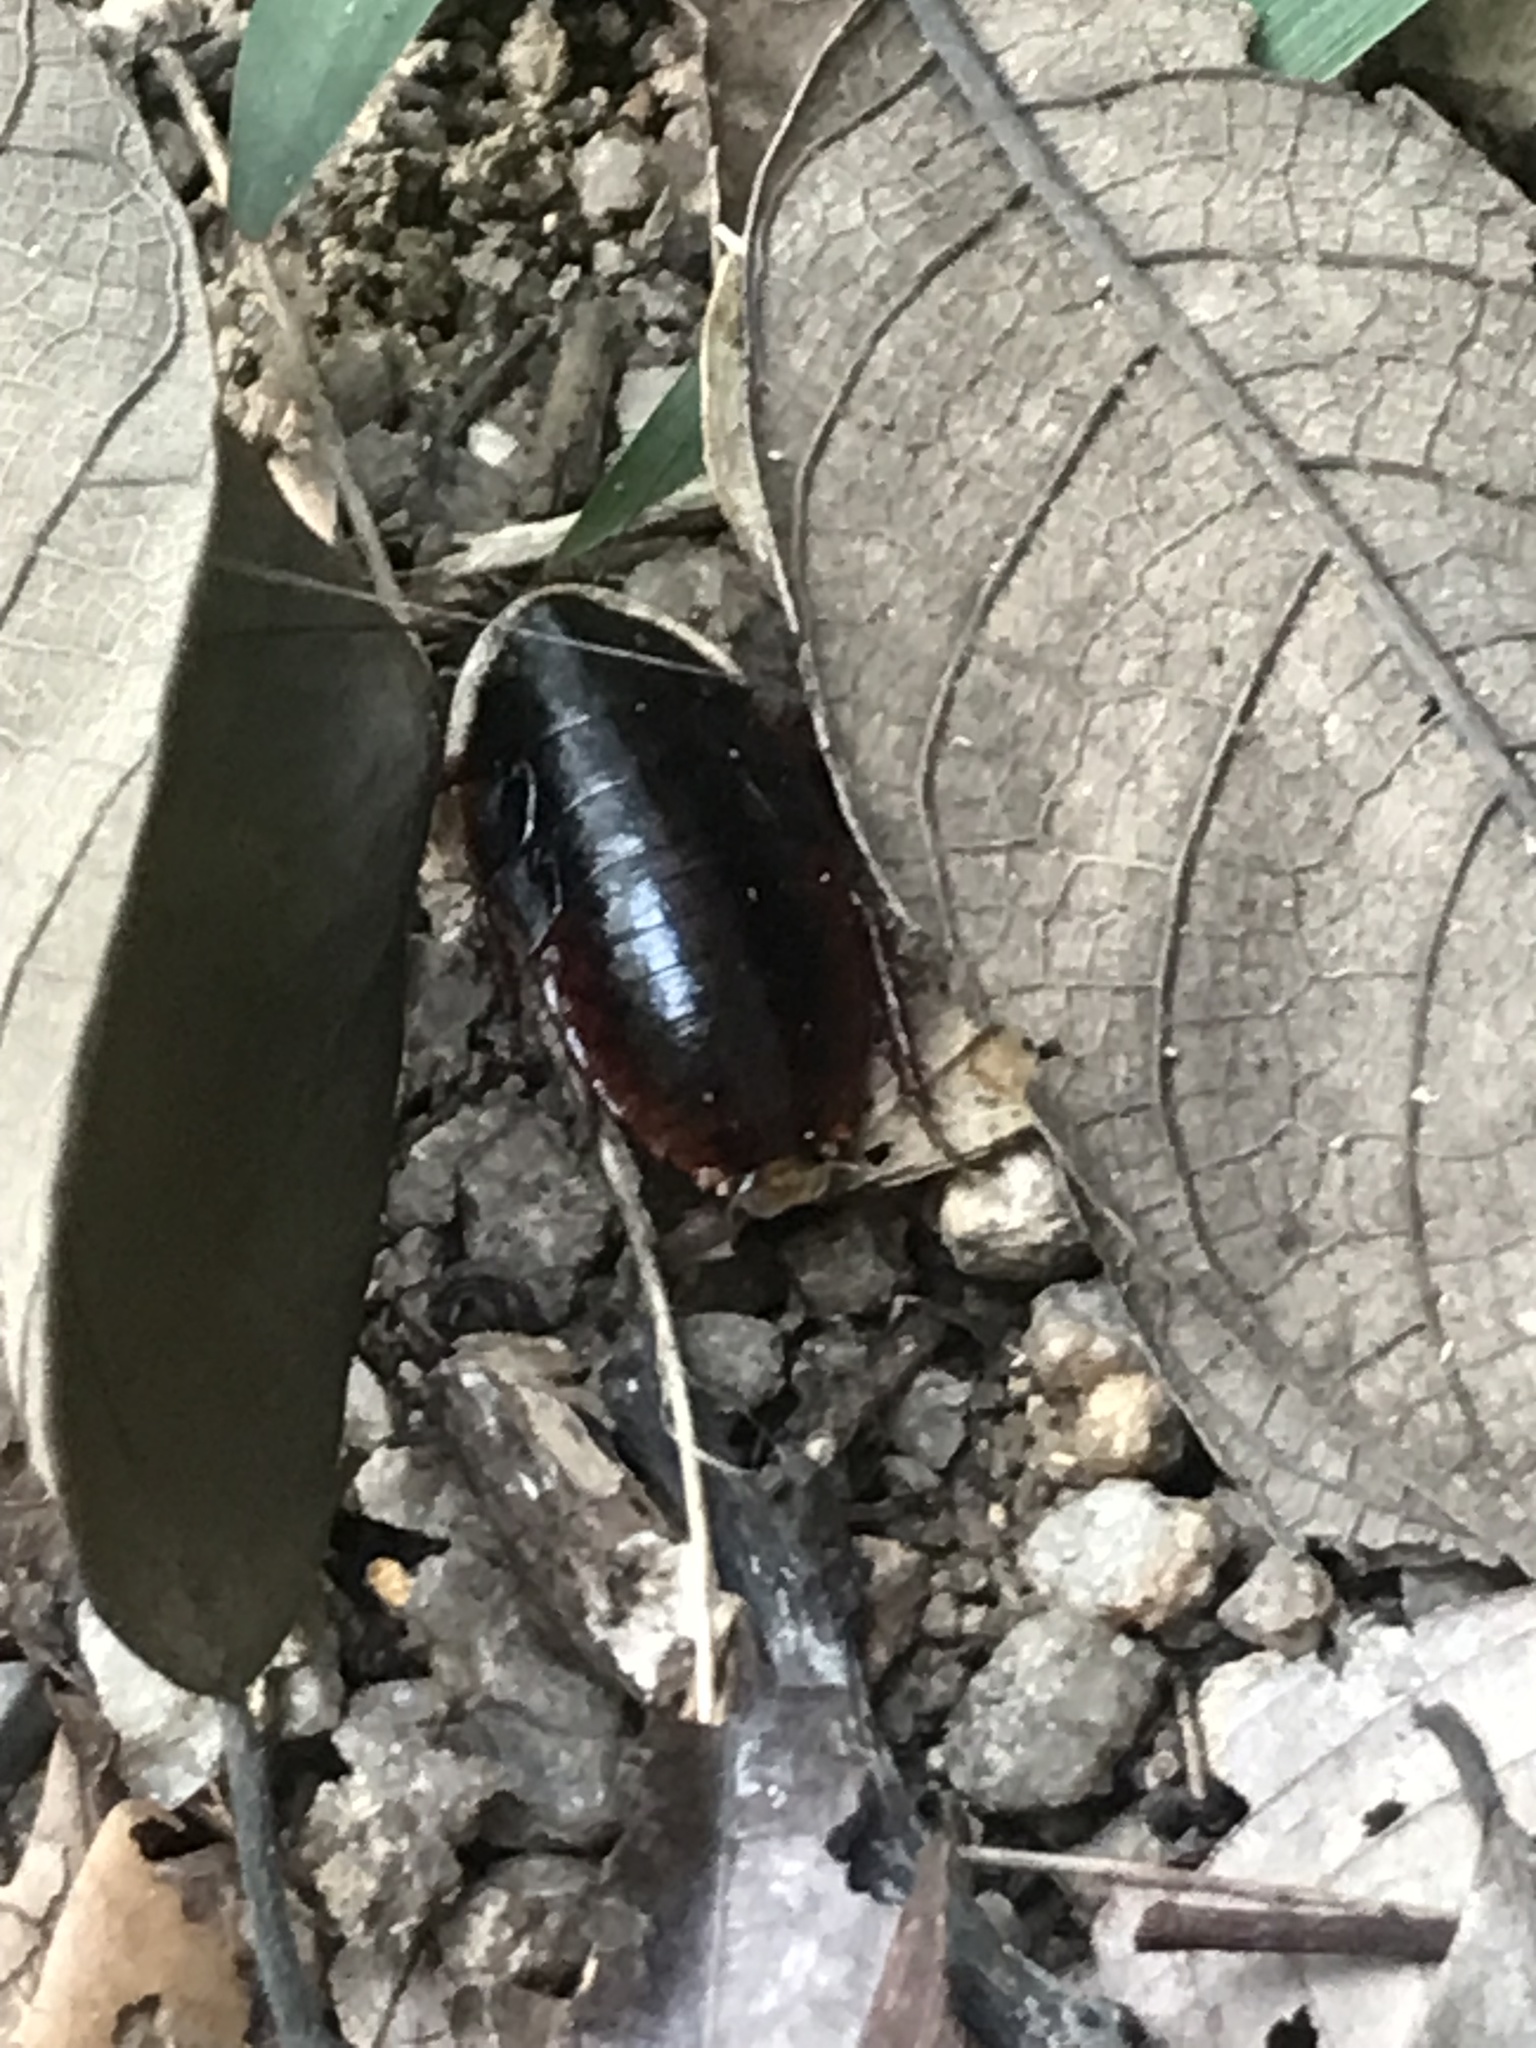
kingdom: Animalia
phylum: Arthropoda
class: Insecta
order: Blattodea
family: Blaberidae
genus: Opisthoplatia
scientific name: Opisthoplatia orientalis
